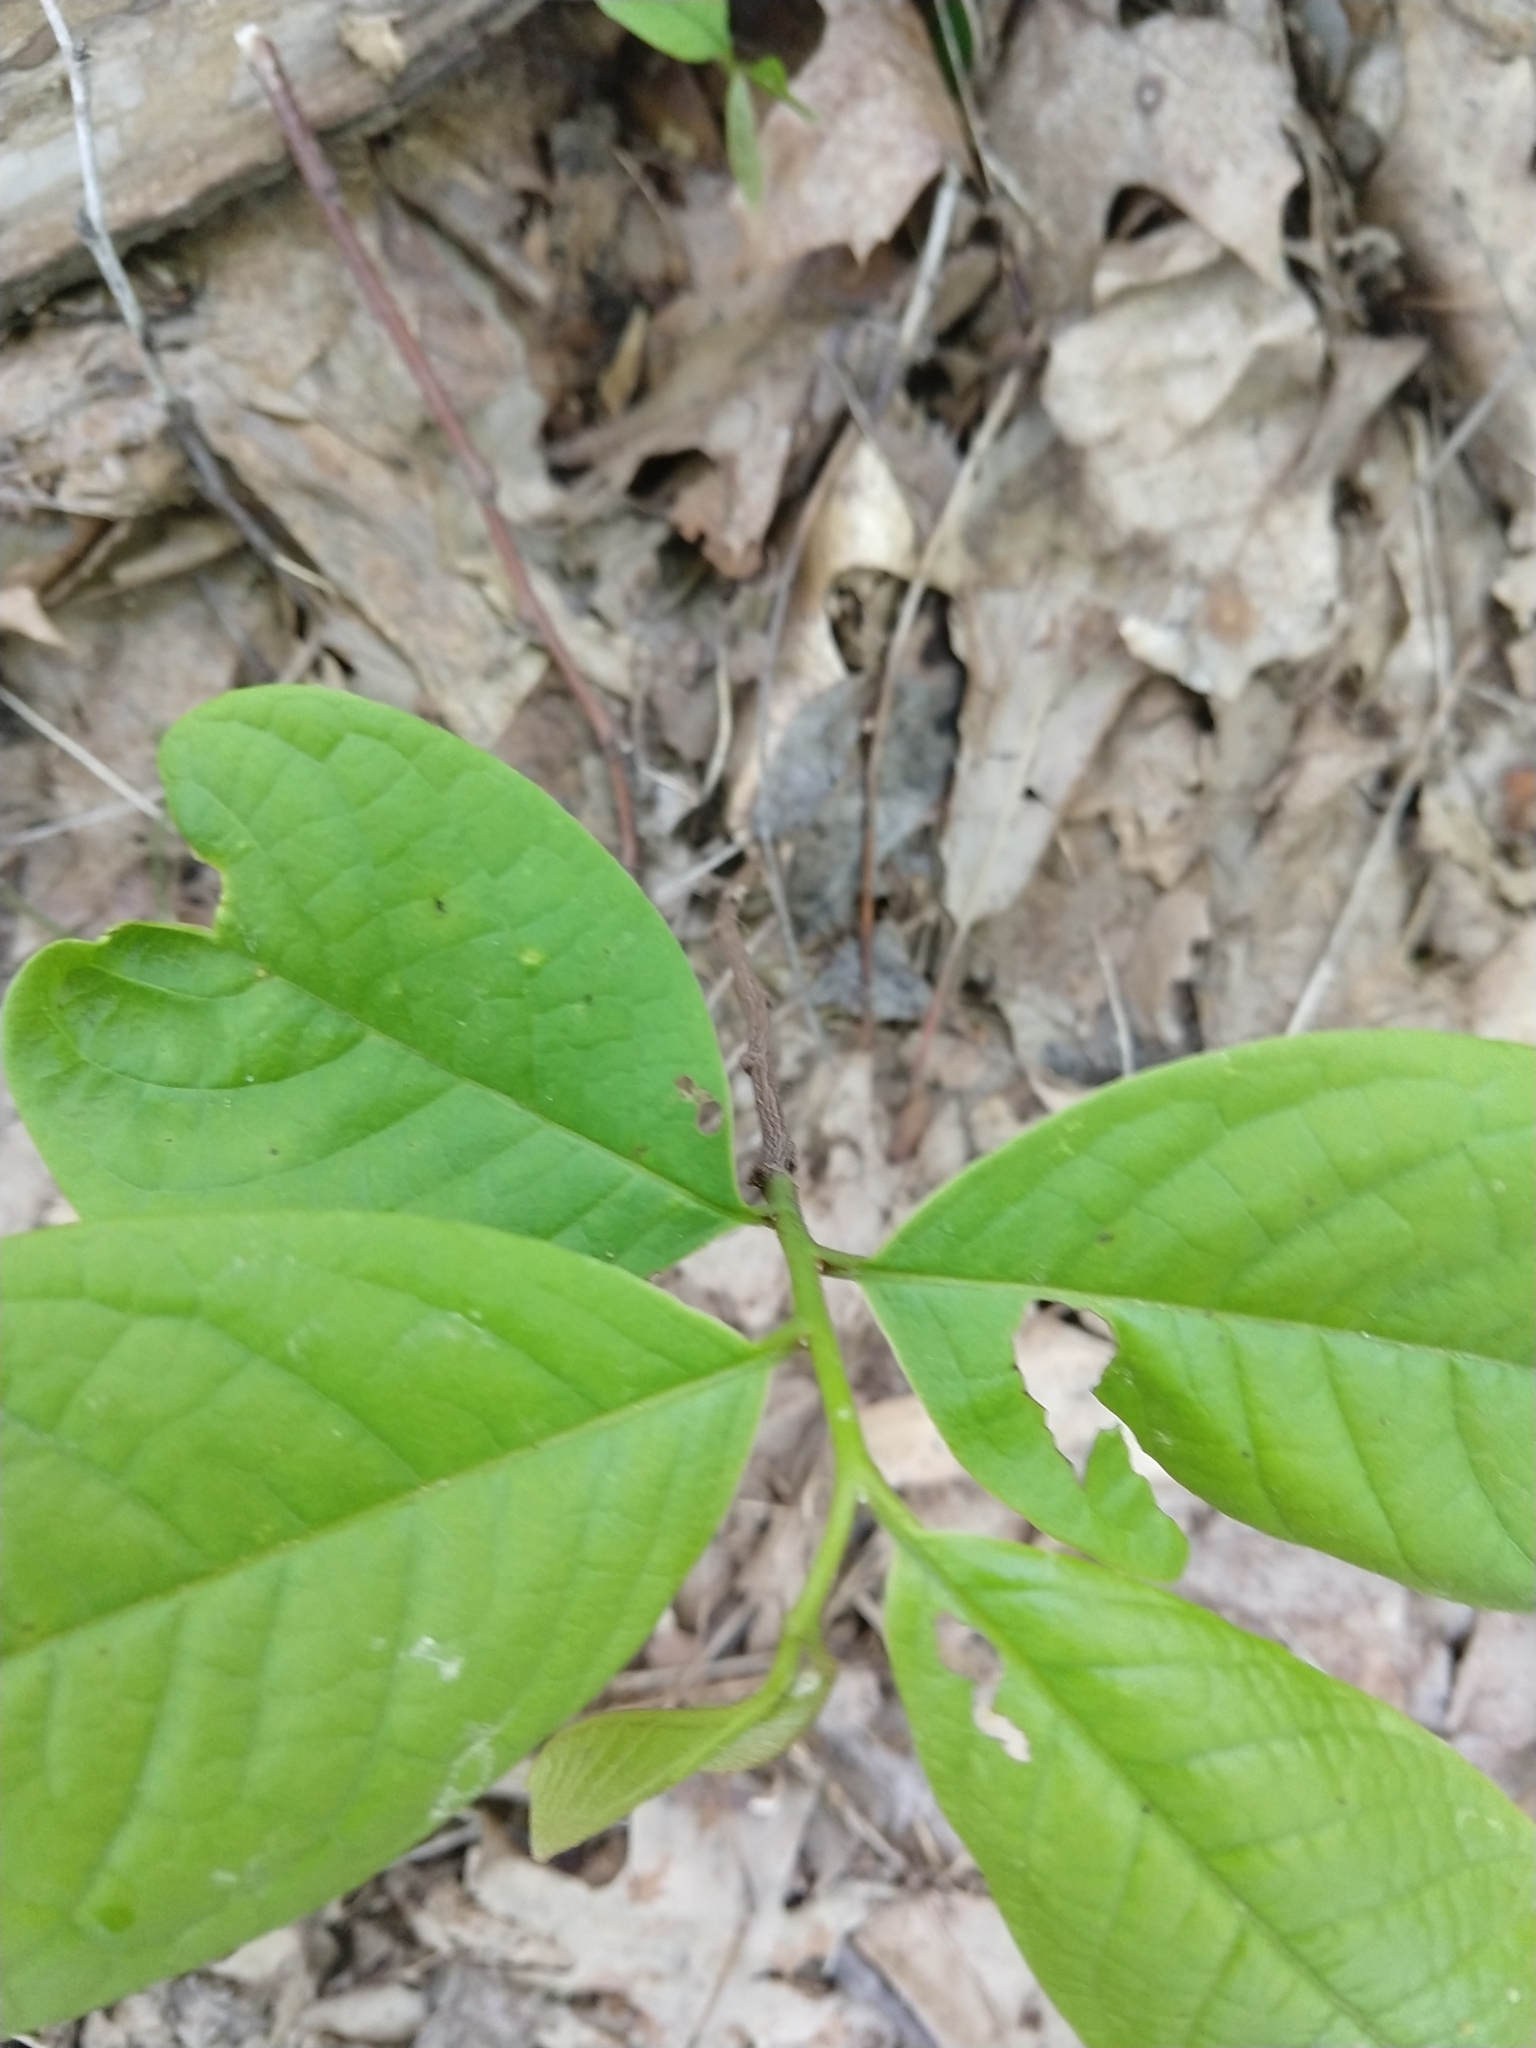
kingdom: Plantae
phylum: Tracheophyta
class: Magnoliopsida
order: Magnoliales
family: Annonaceae
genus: Asimina
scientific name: Asimina triloba
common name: Dog-banana
